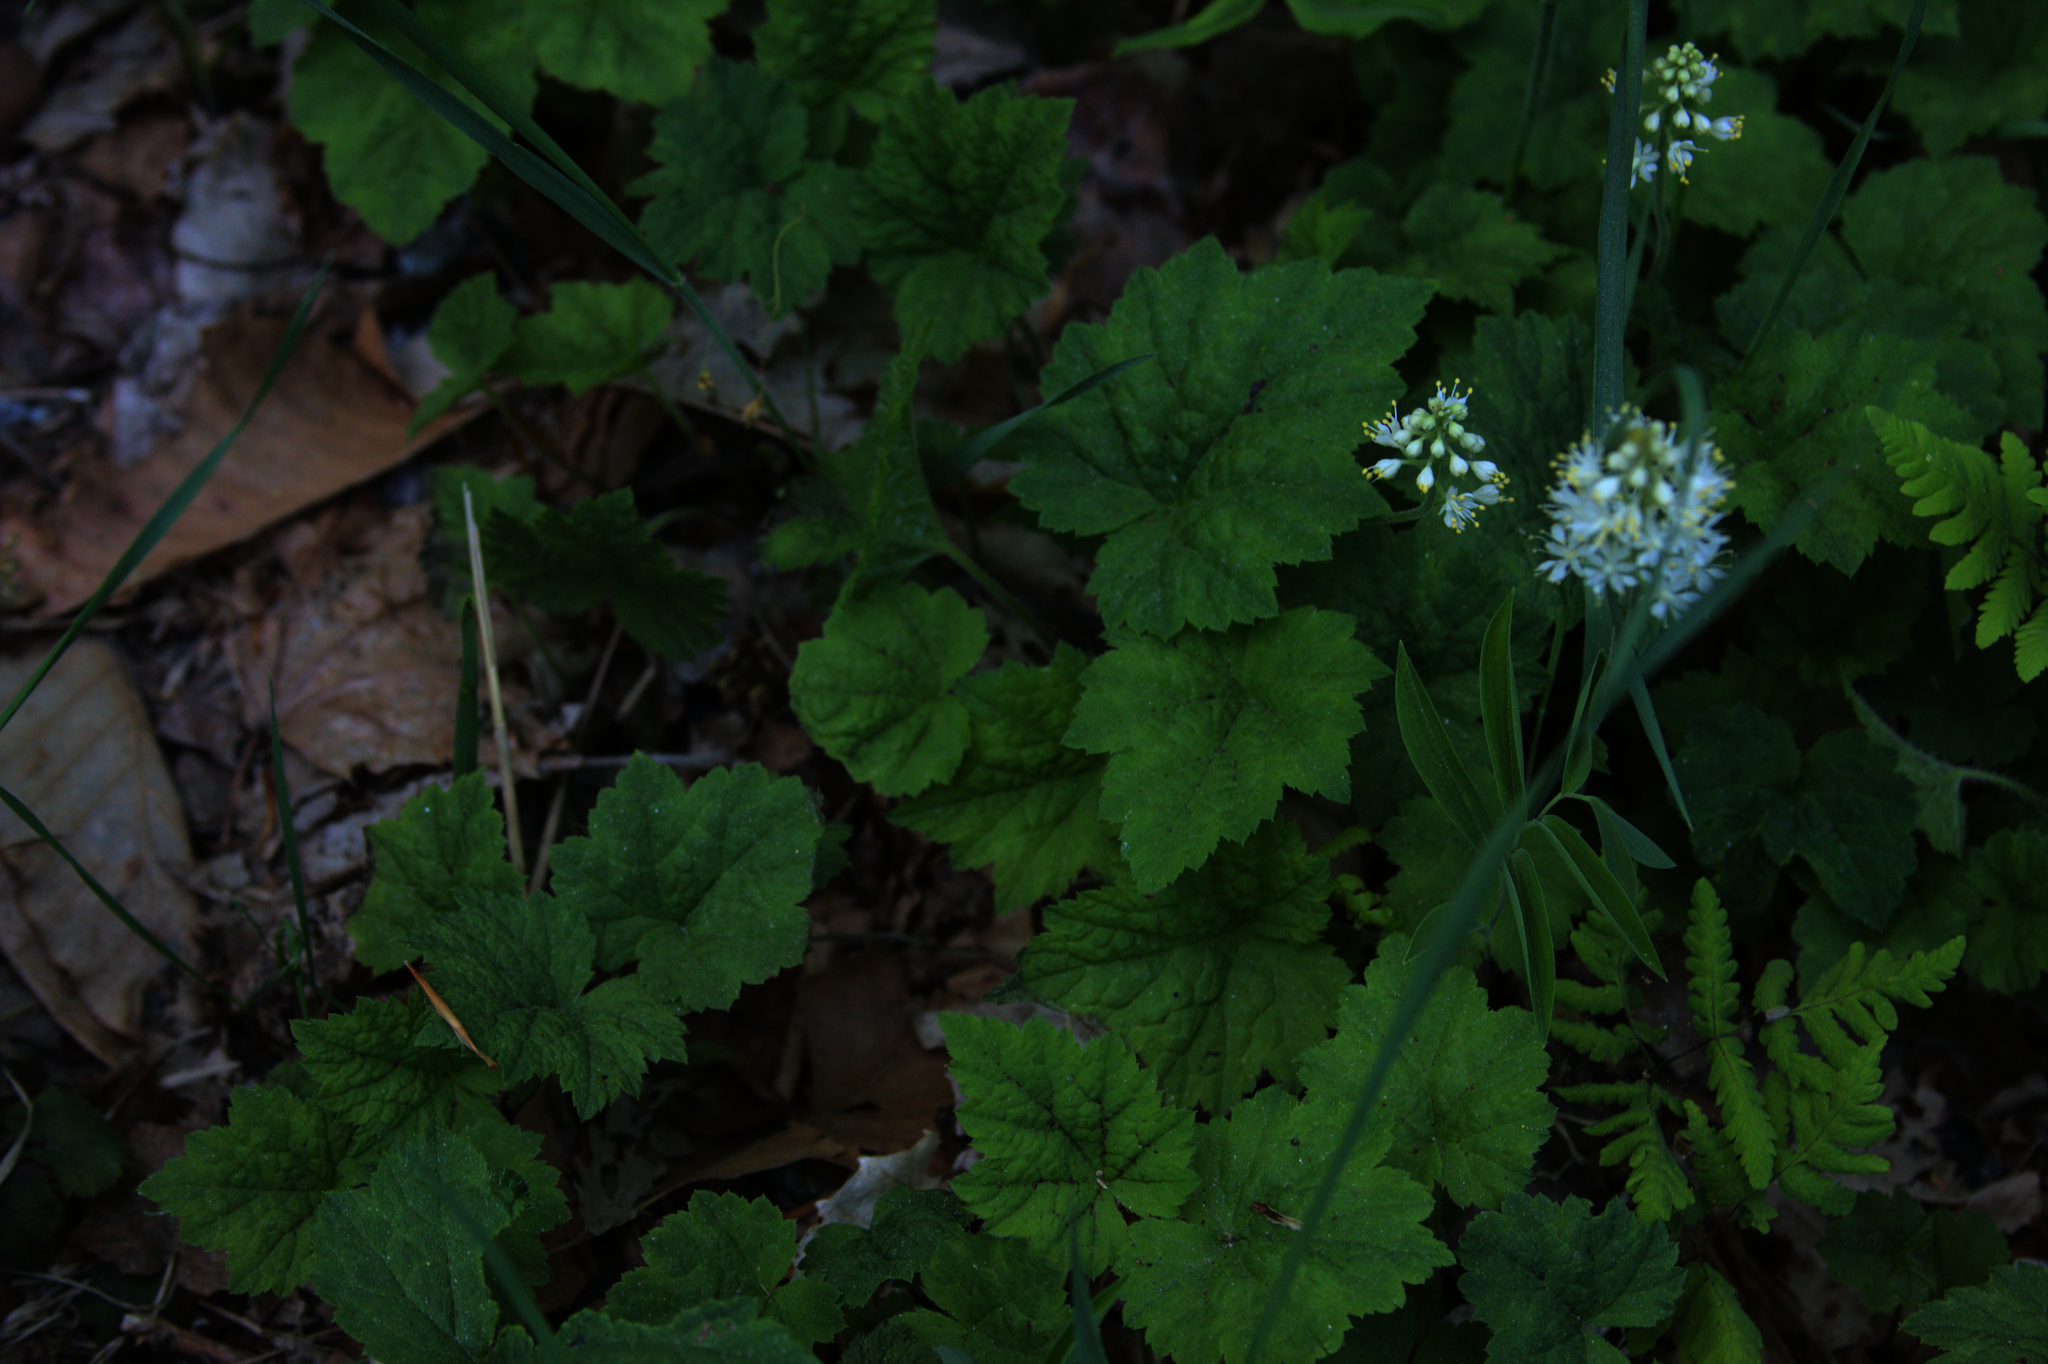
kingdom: Plantae
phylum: Tracheophyta
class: Magnoliopsida
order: Saxifragales
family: Saxifragaceae
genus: Tiarella
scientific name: Tiarella stolonifera
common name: Stoloniferous foamflower
